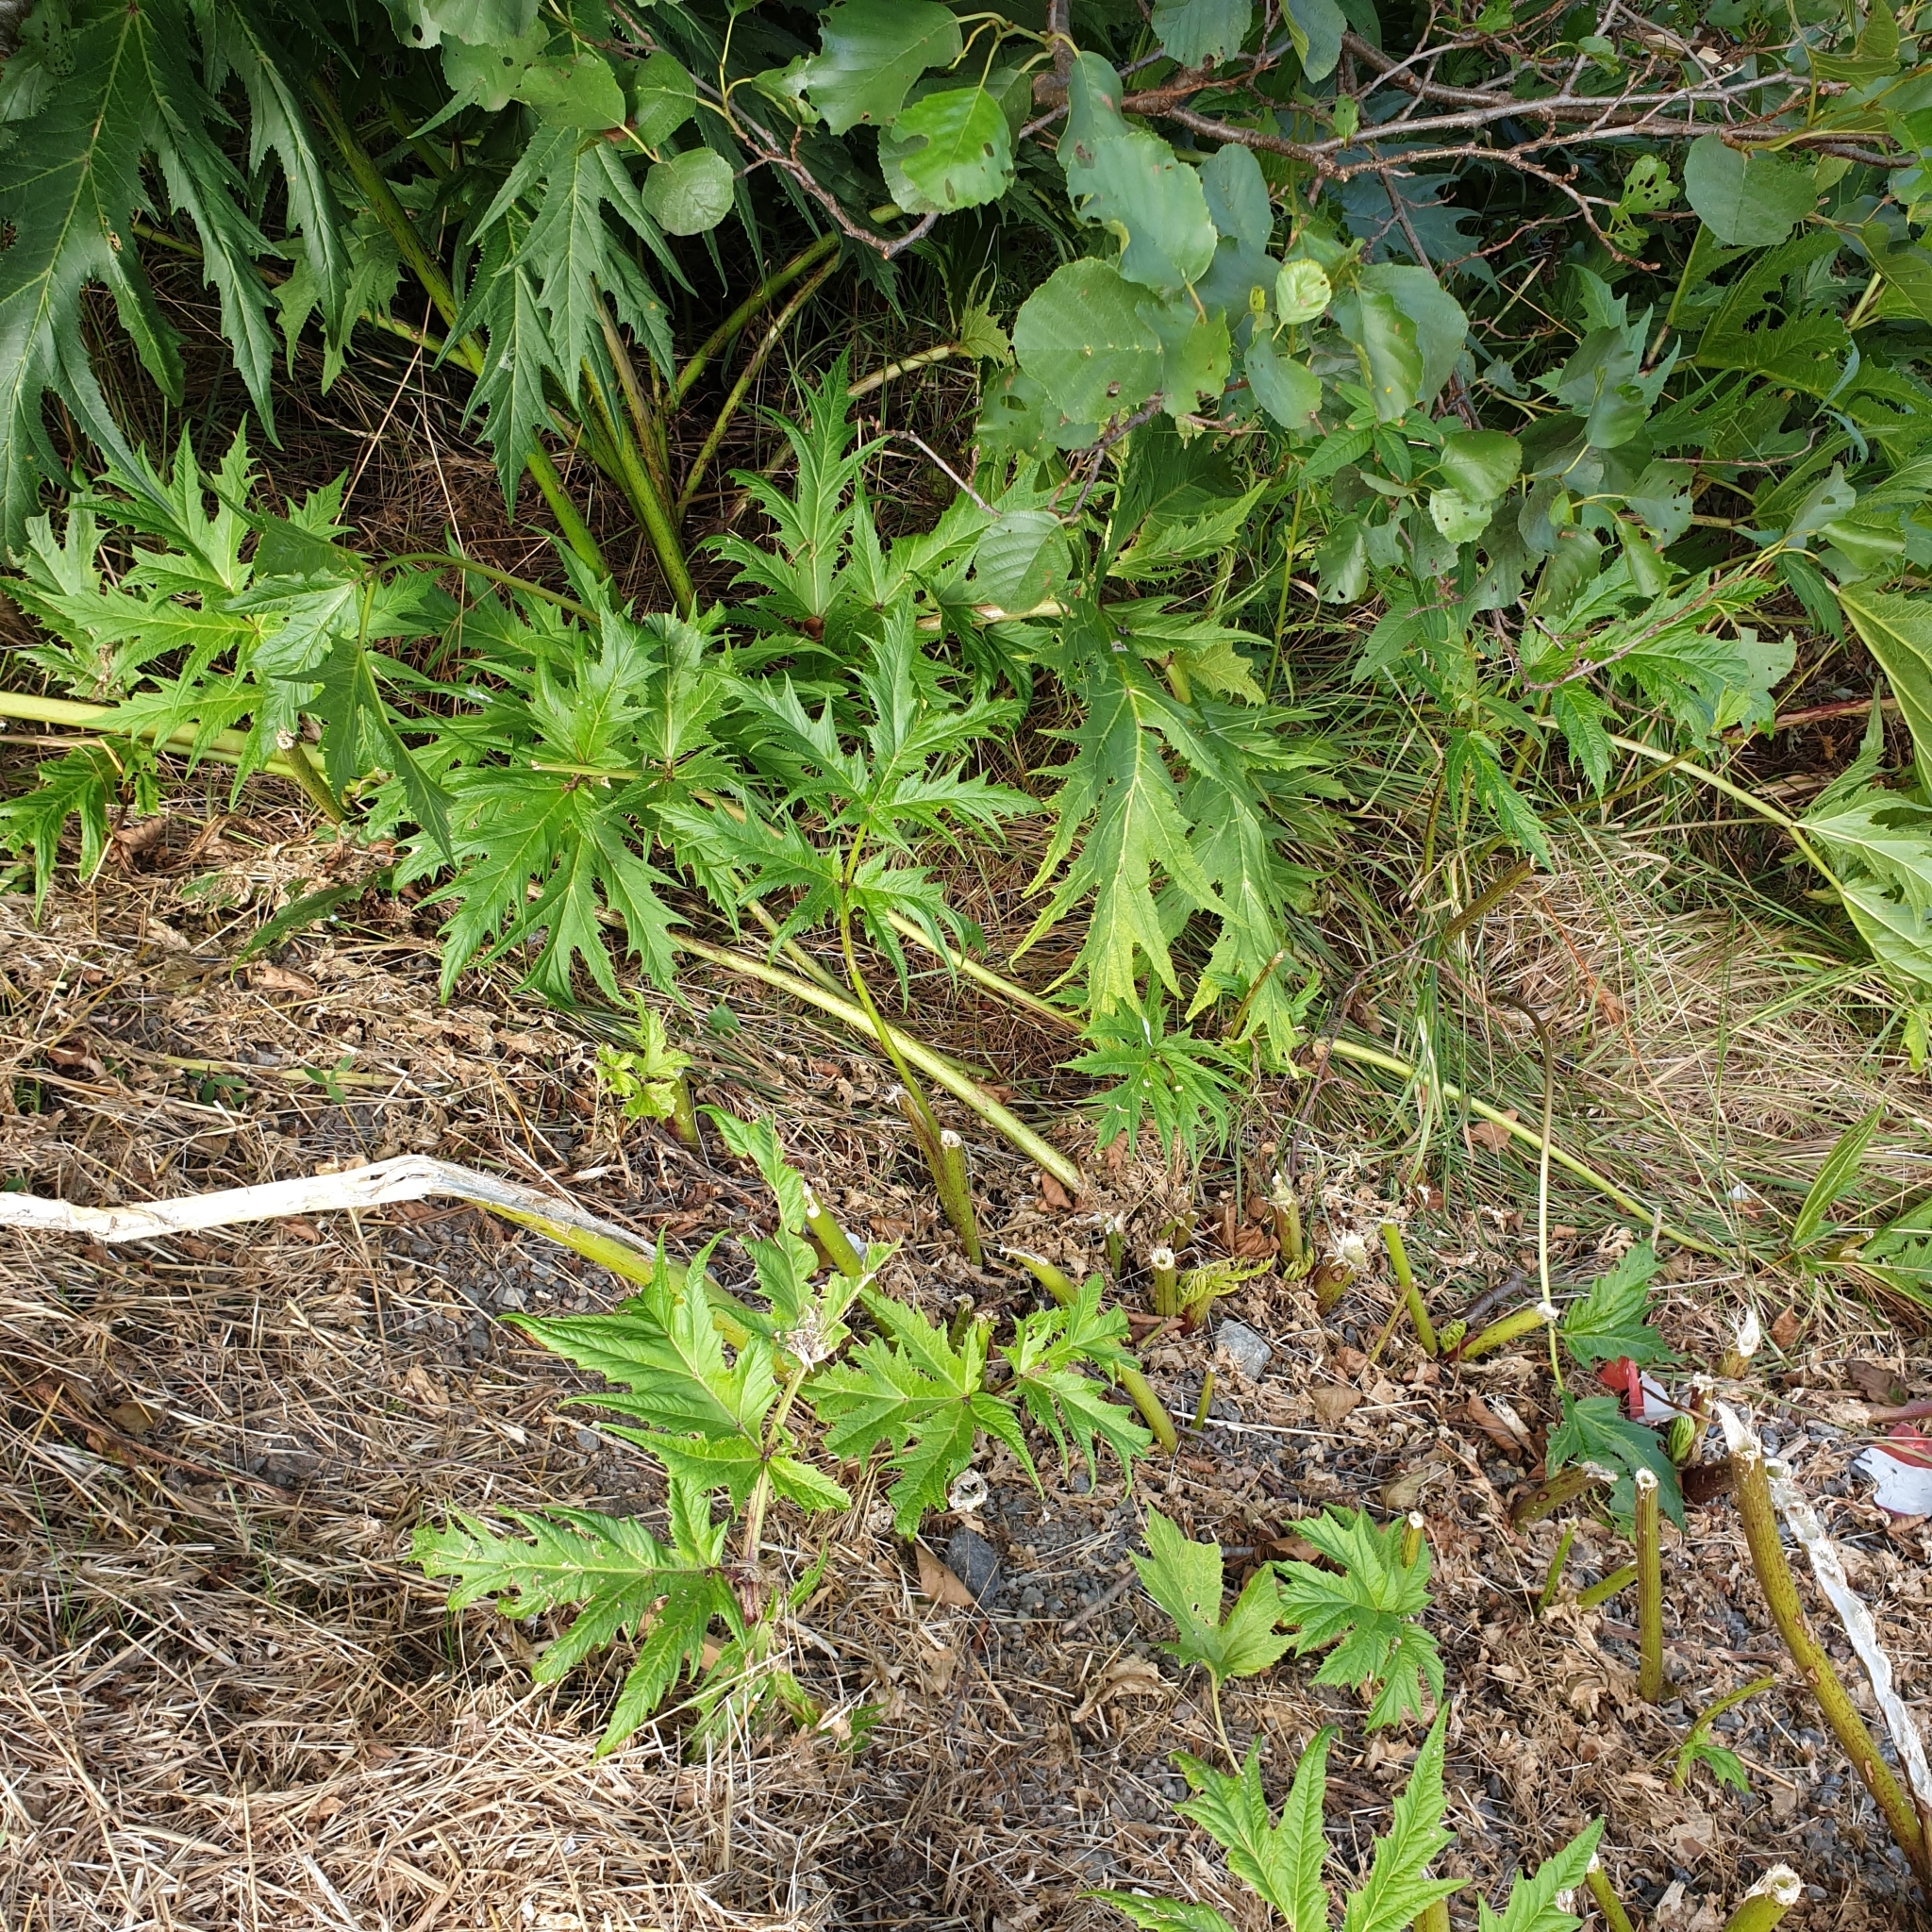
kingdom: Plantae
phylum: Tracheophyta
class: Magnoliopsida
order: Apiales
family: Apiaceae
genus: Heracleum
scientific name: Heracleum mantegazzianum
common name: Giant hogweed
